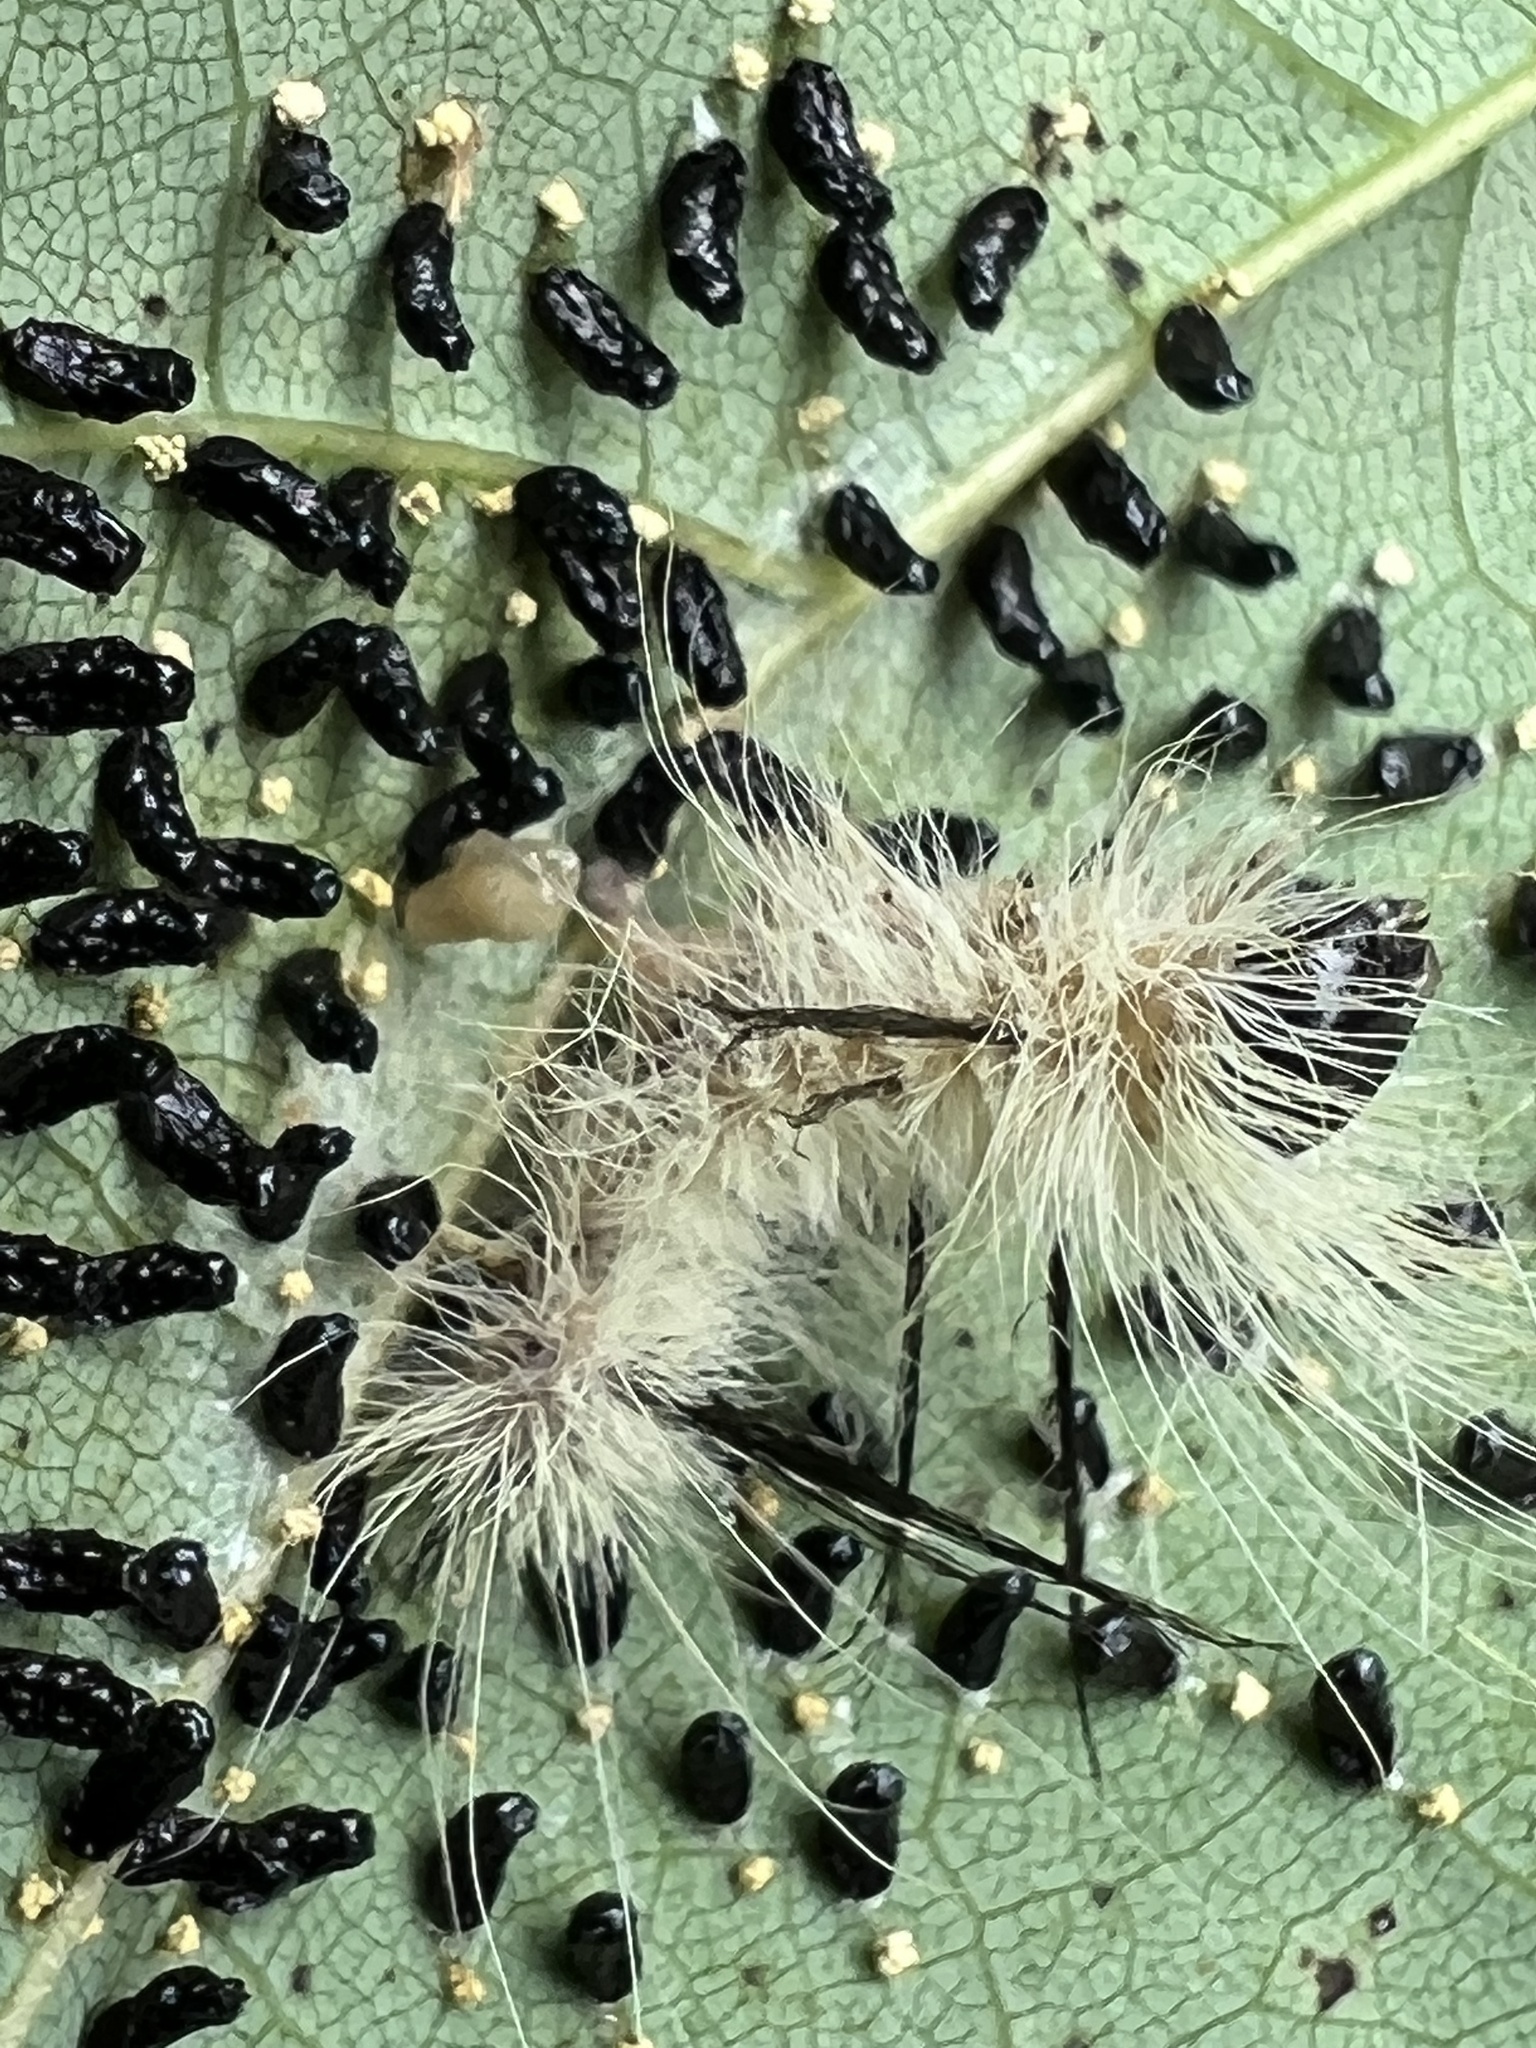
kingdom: Animalia
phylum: Arthropoda
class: Insecta
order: Lepidoptera
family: Noctuidae
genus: Acronicta
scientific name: Acronicta americana
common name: American dagger
